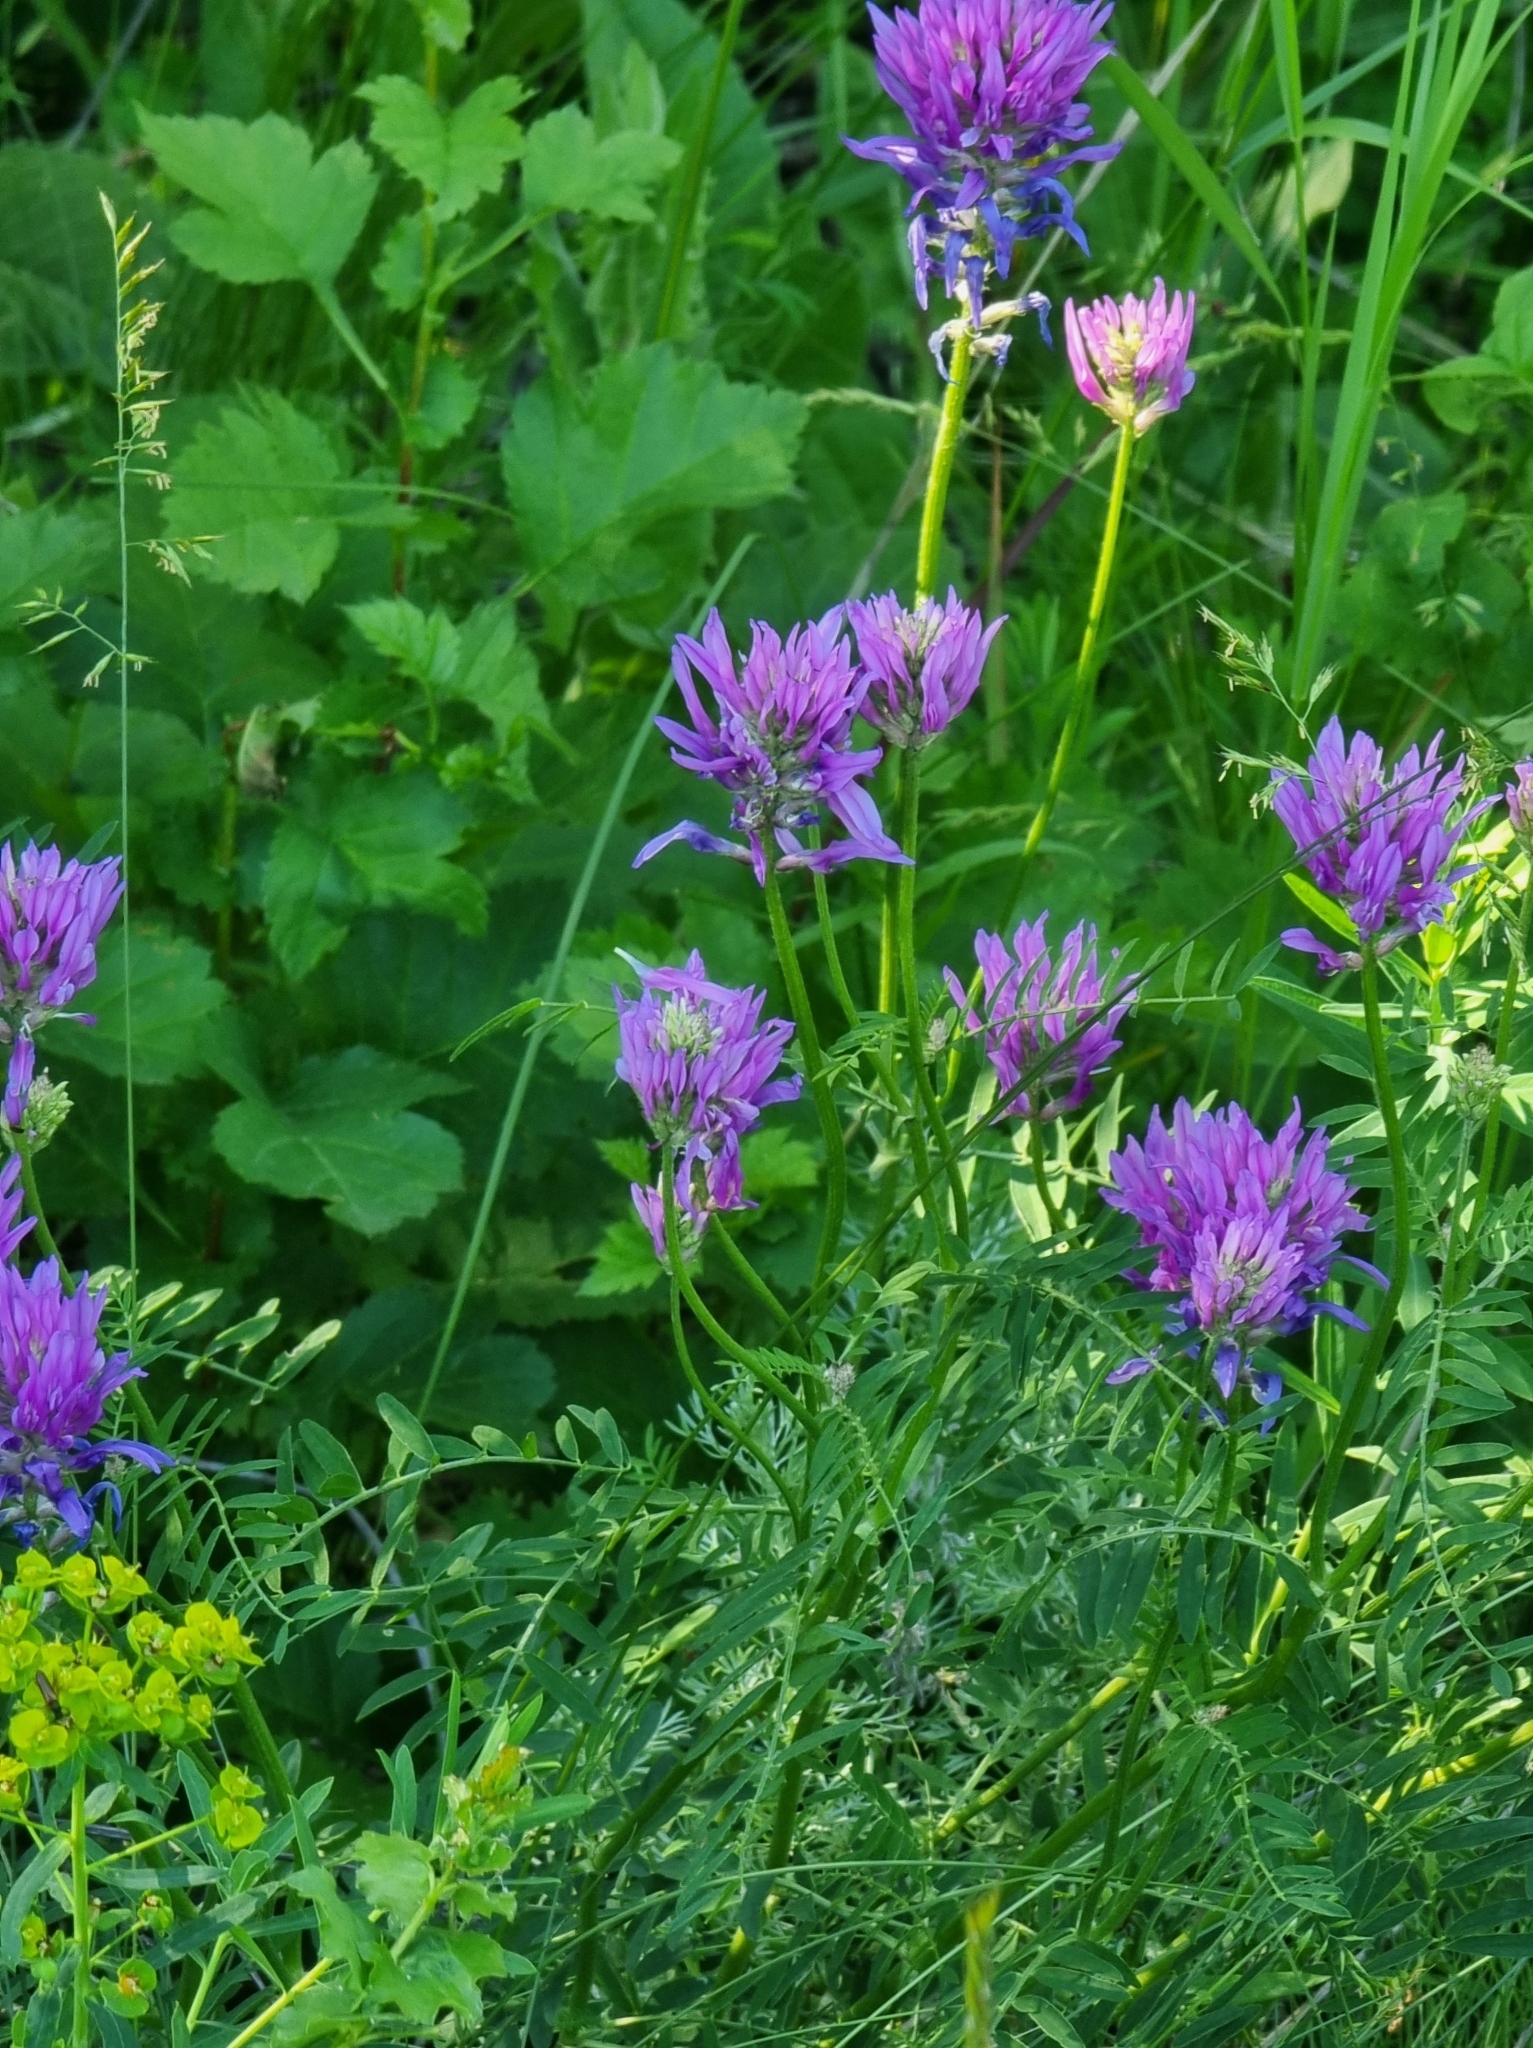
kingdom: Plantae
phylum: Tracheophyta
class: Magnoliopsida
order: Fabales
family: Fabaceae
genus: Astragalus
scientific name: Astragalus onobrychis
